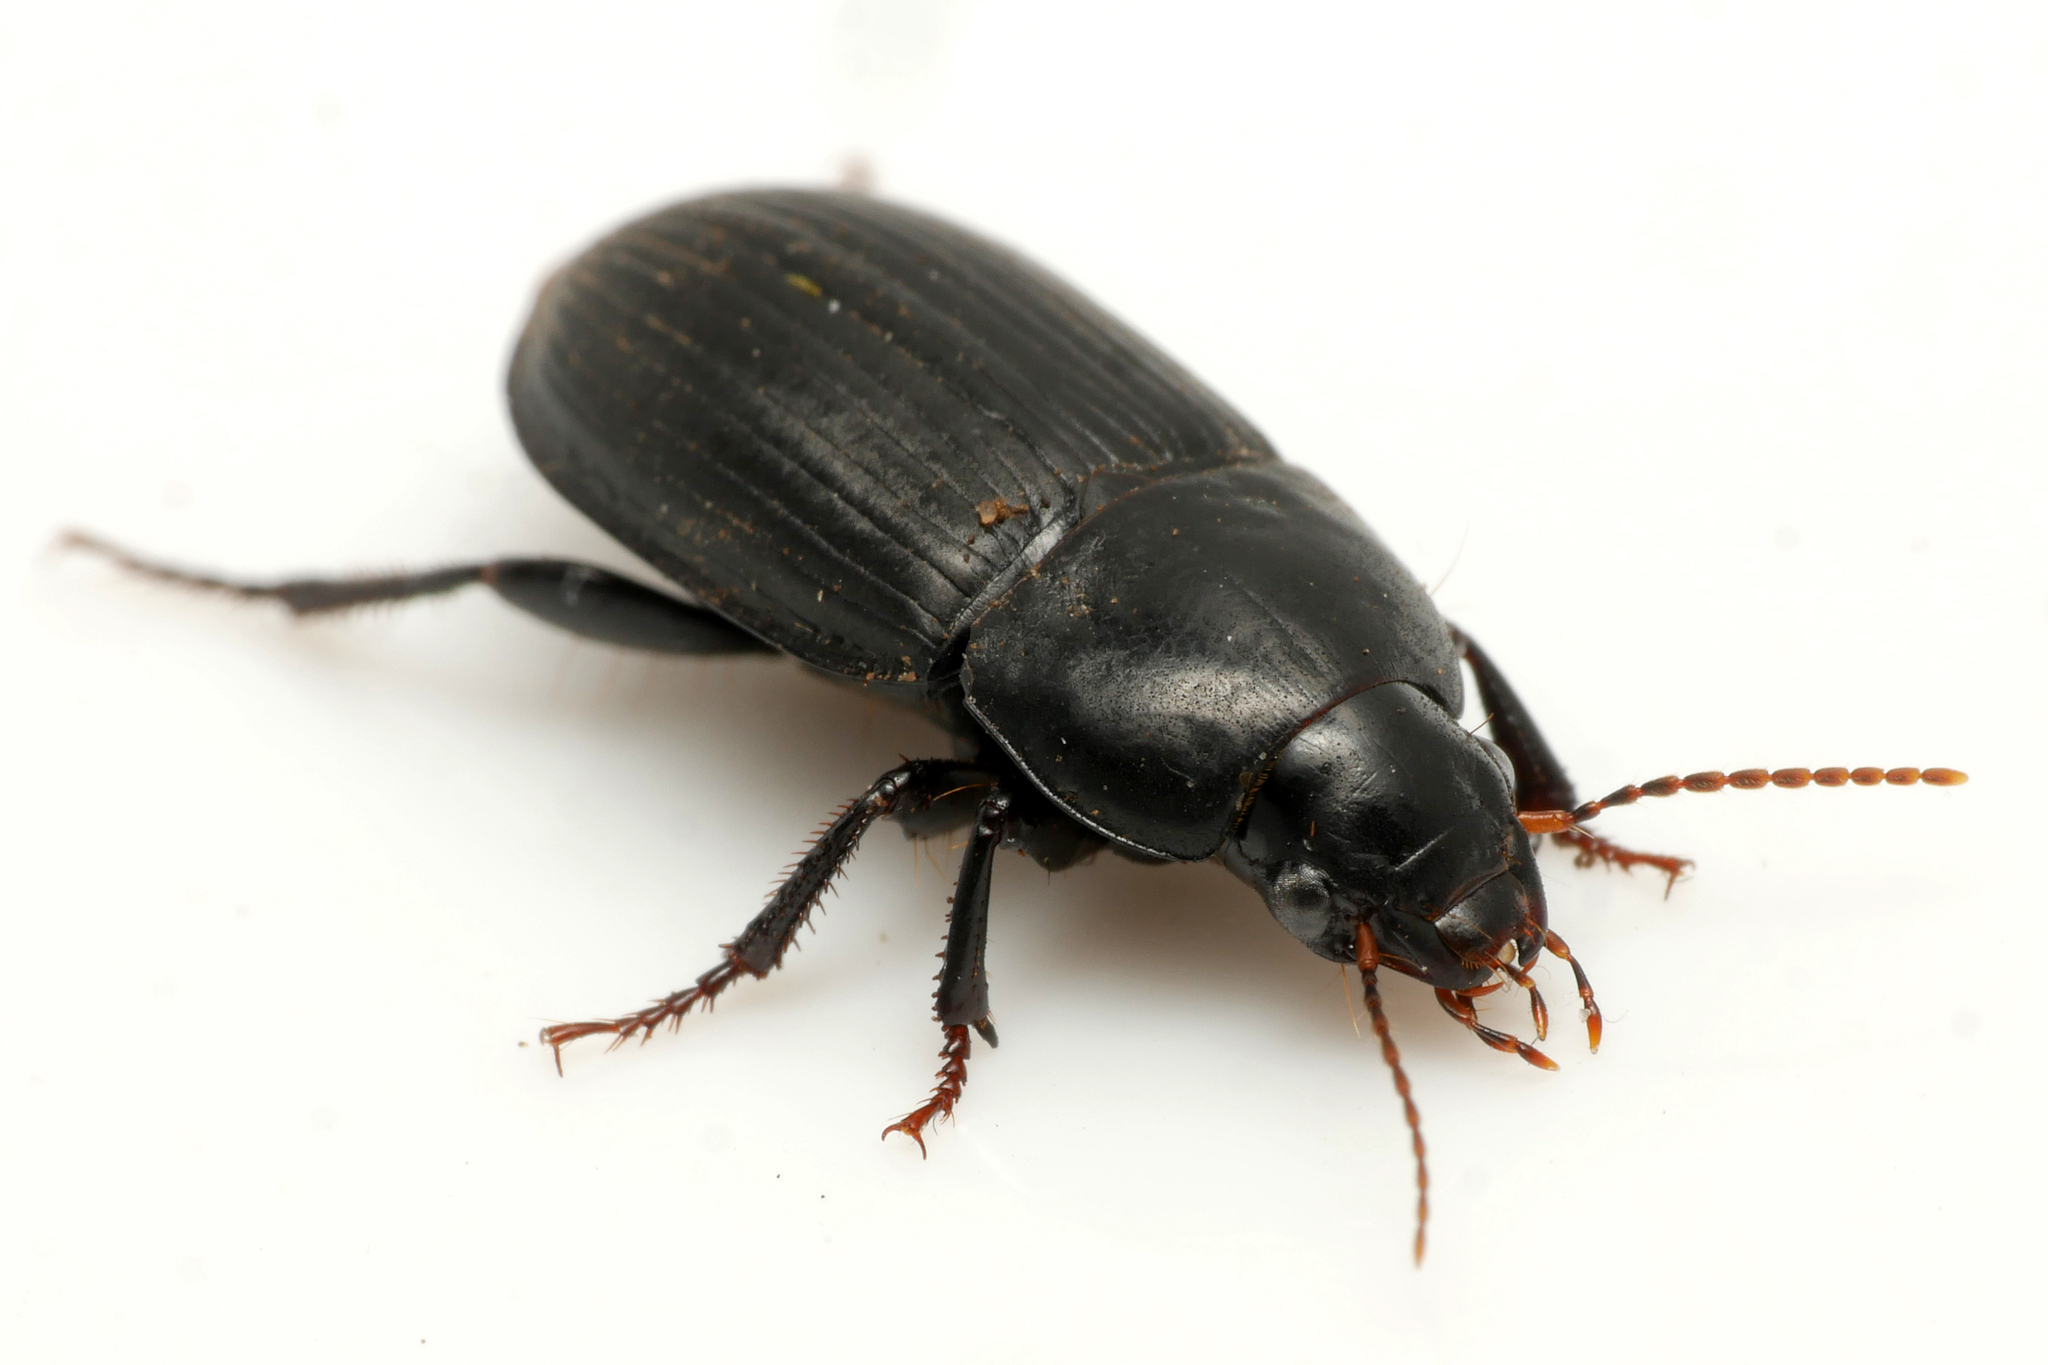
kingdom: Animalia
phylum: Arthropoda
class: Insecta
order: Coleoptera
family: Carabidae
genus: Harpalus
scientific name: Harpalus serripes
